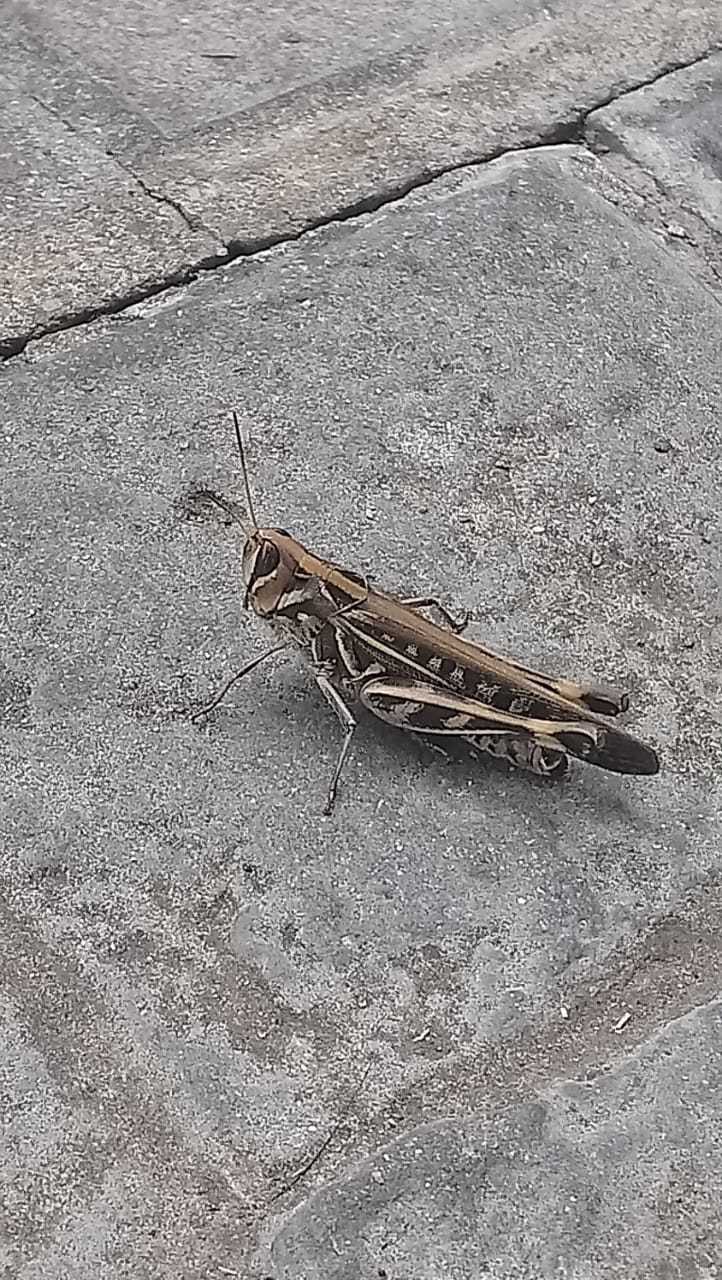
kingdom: Animalia
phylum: Arthropoda
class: Insecta
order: Orthoptera
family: Acrididae
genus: Rhammatocerus
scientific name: Rhammatocerus pictus
